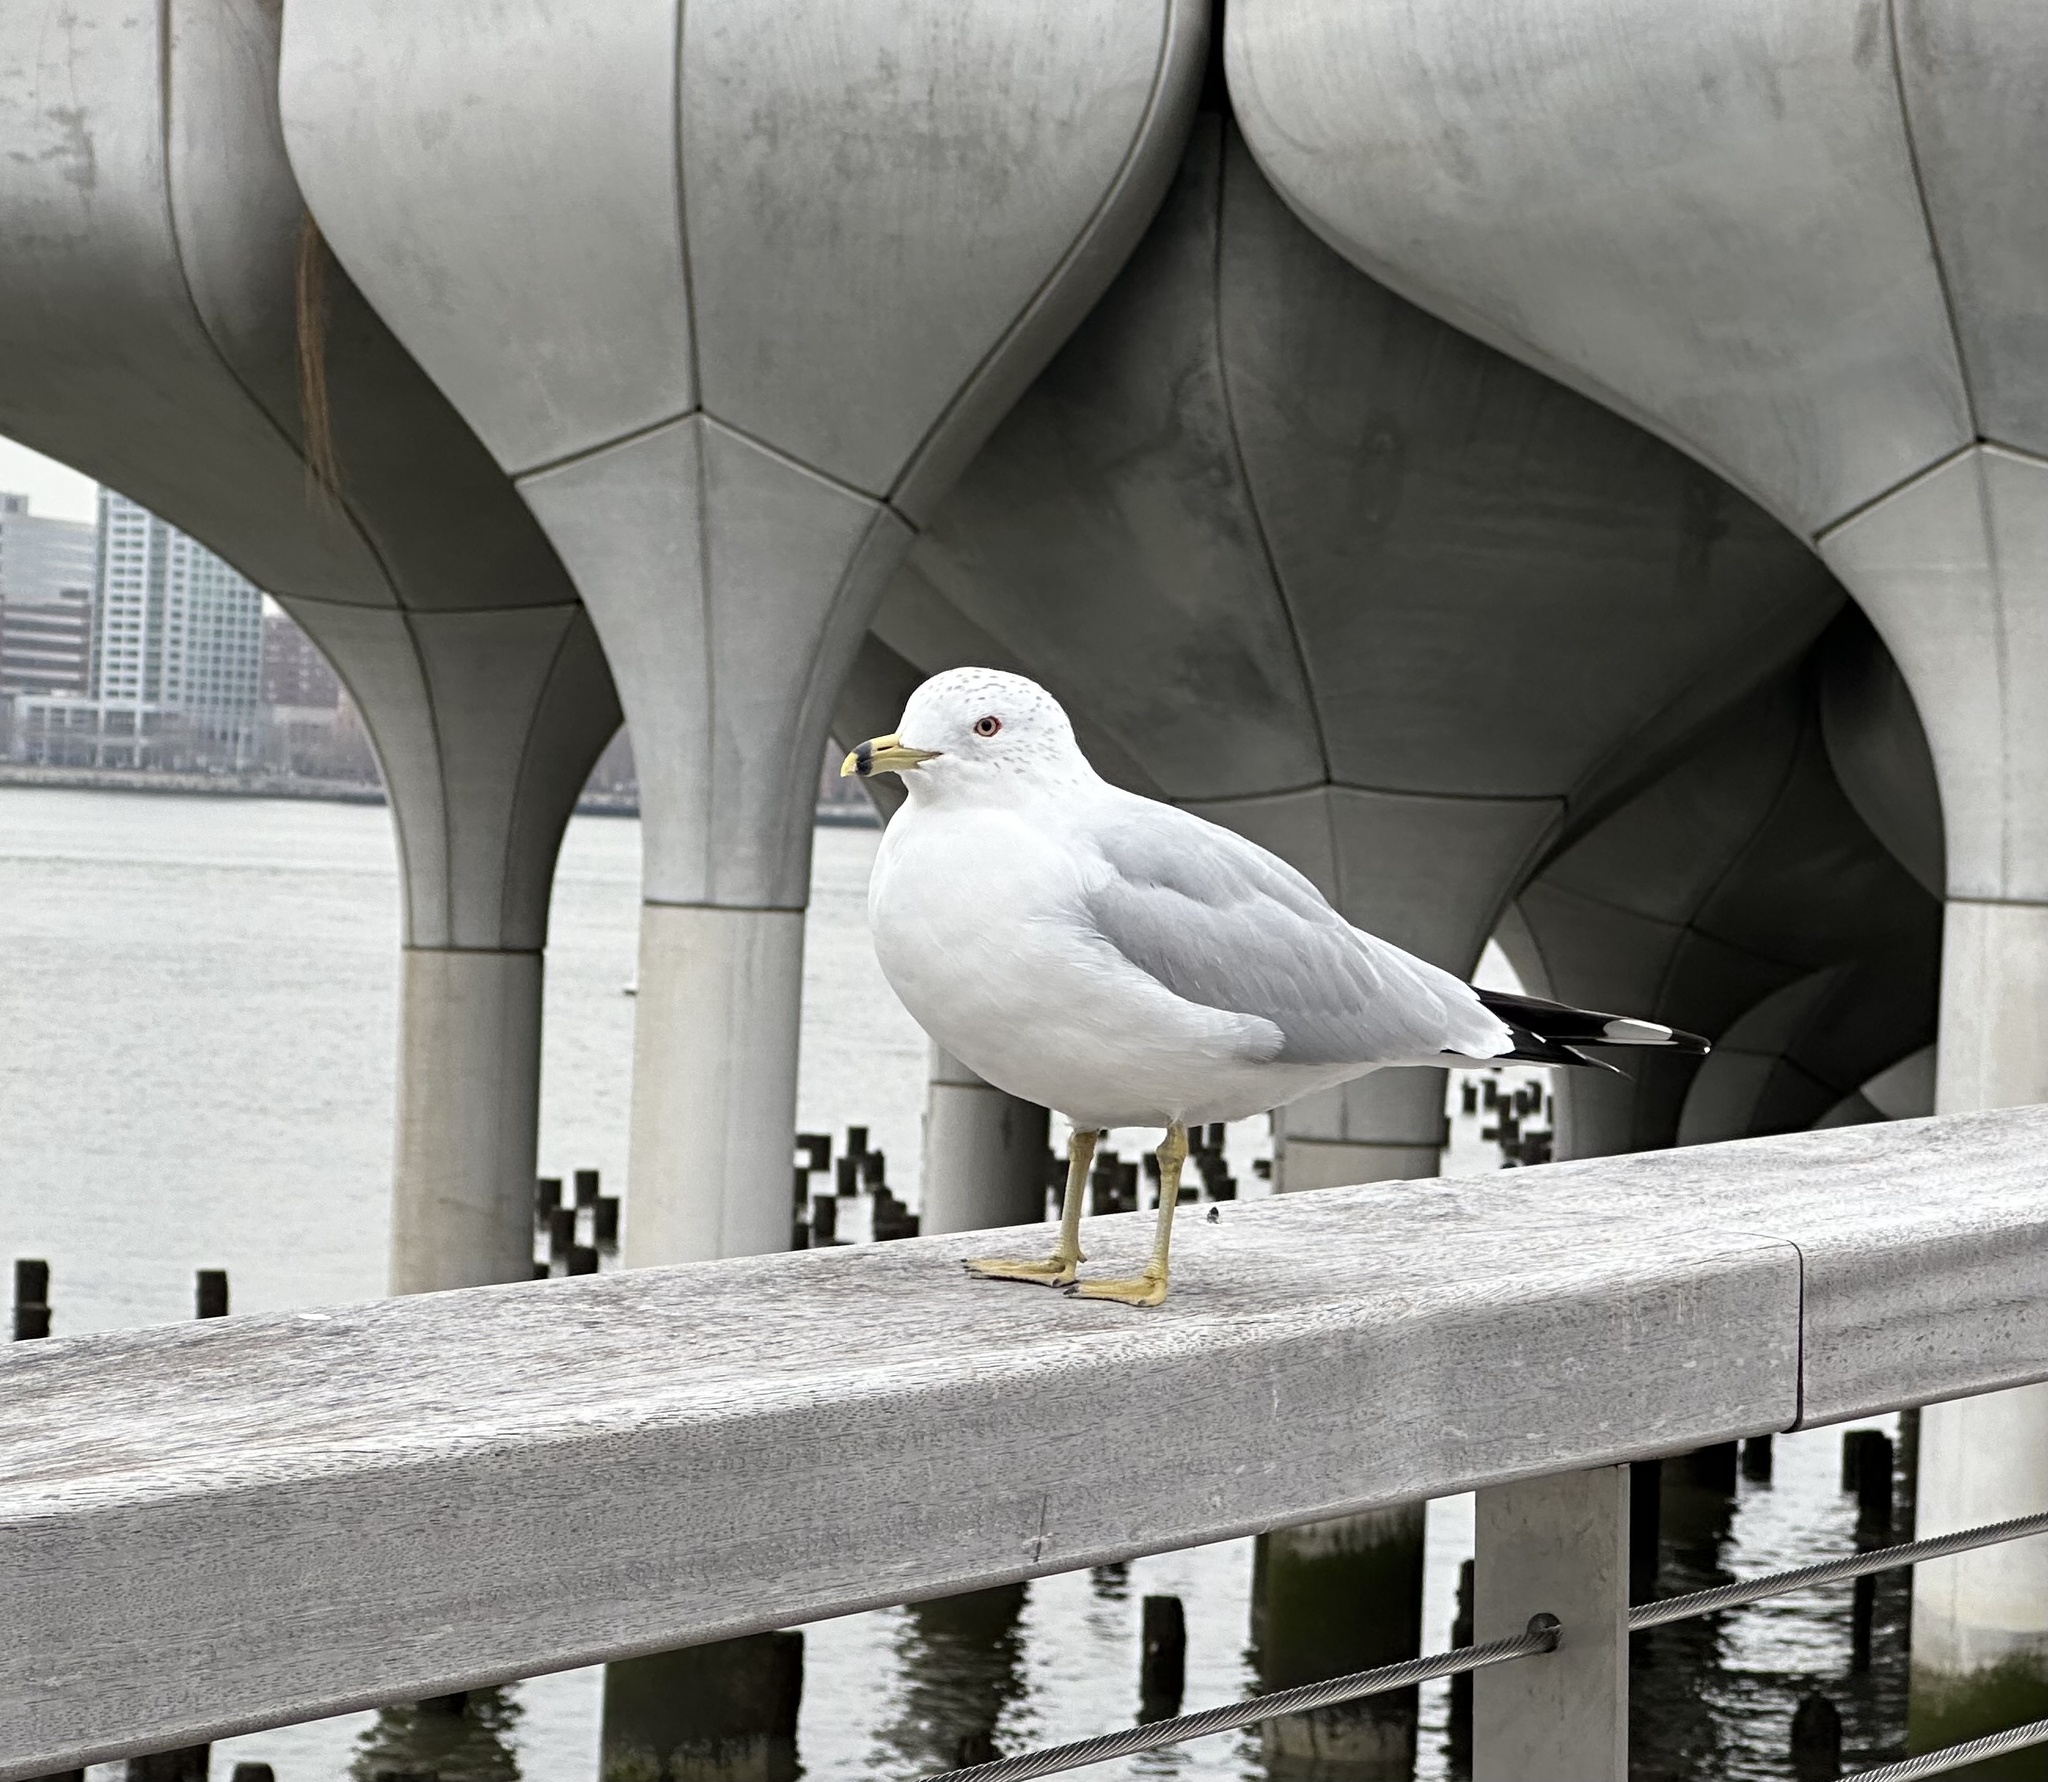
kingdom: Animalia
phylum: Chordata
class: Aves
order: Charadriiformes
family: Laridae
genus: Larus
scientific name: Larus delawarensis
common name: Ring-billed gull
